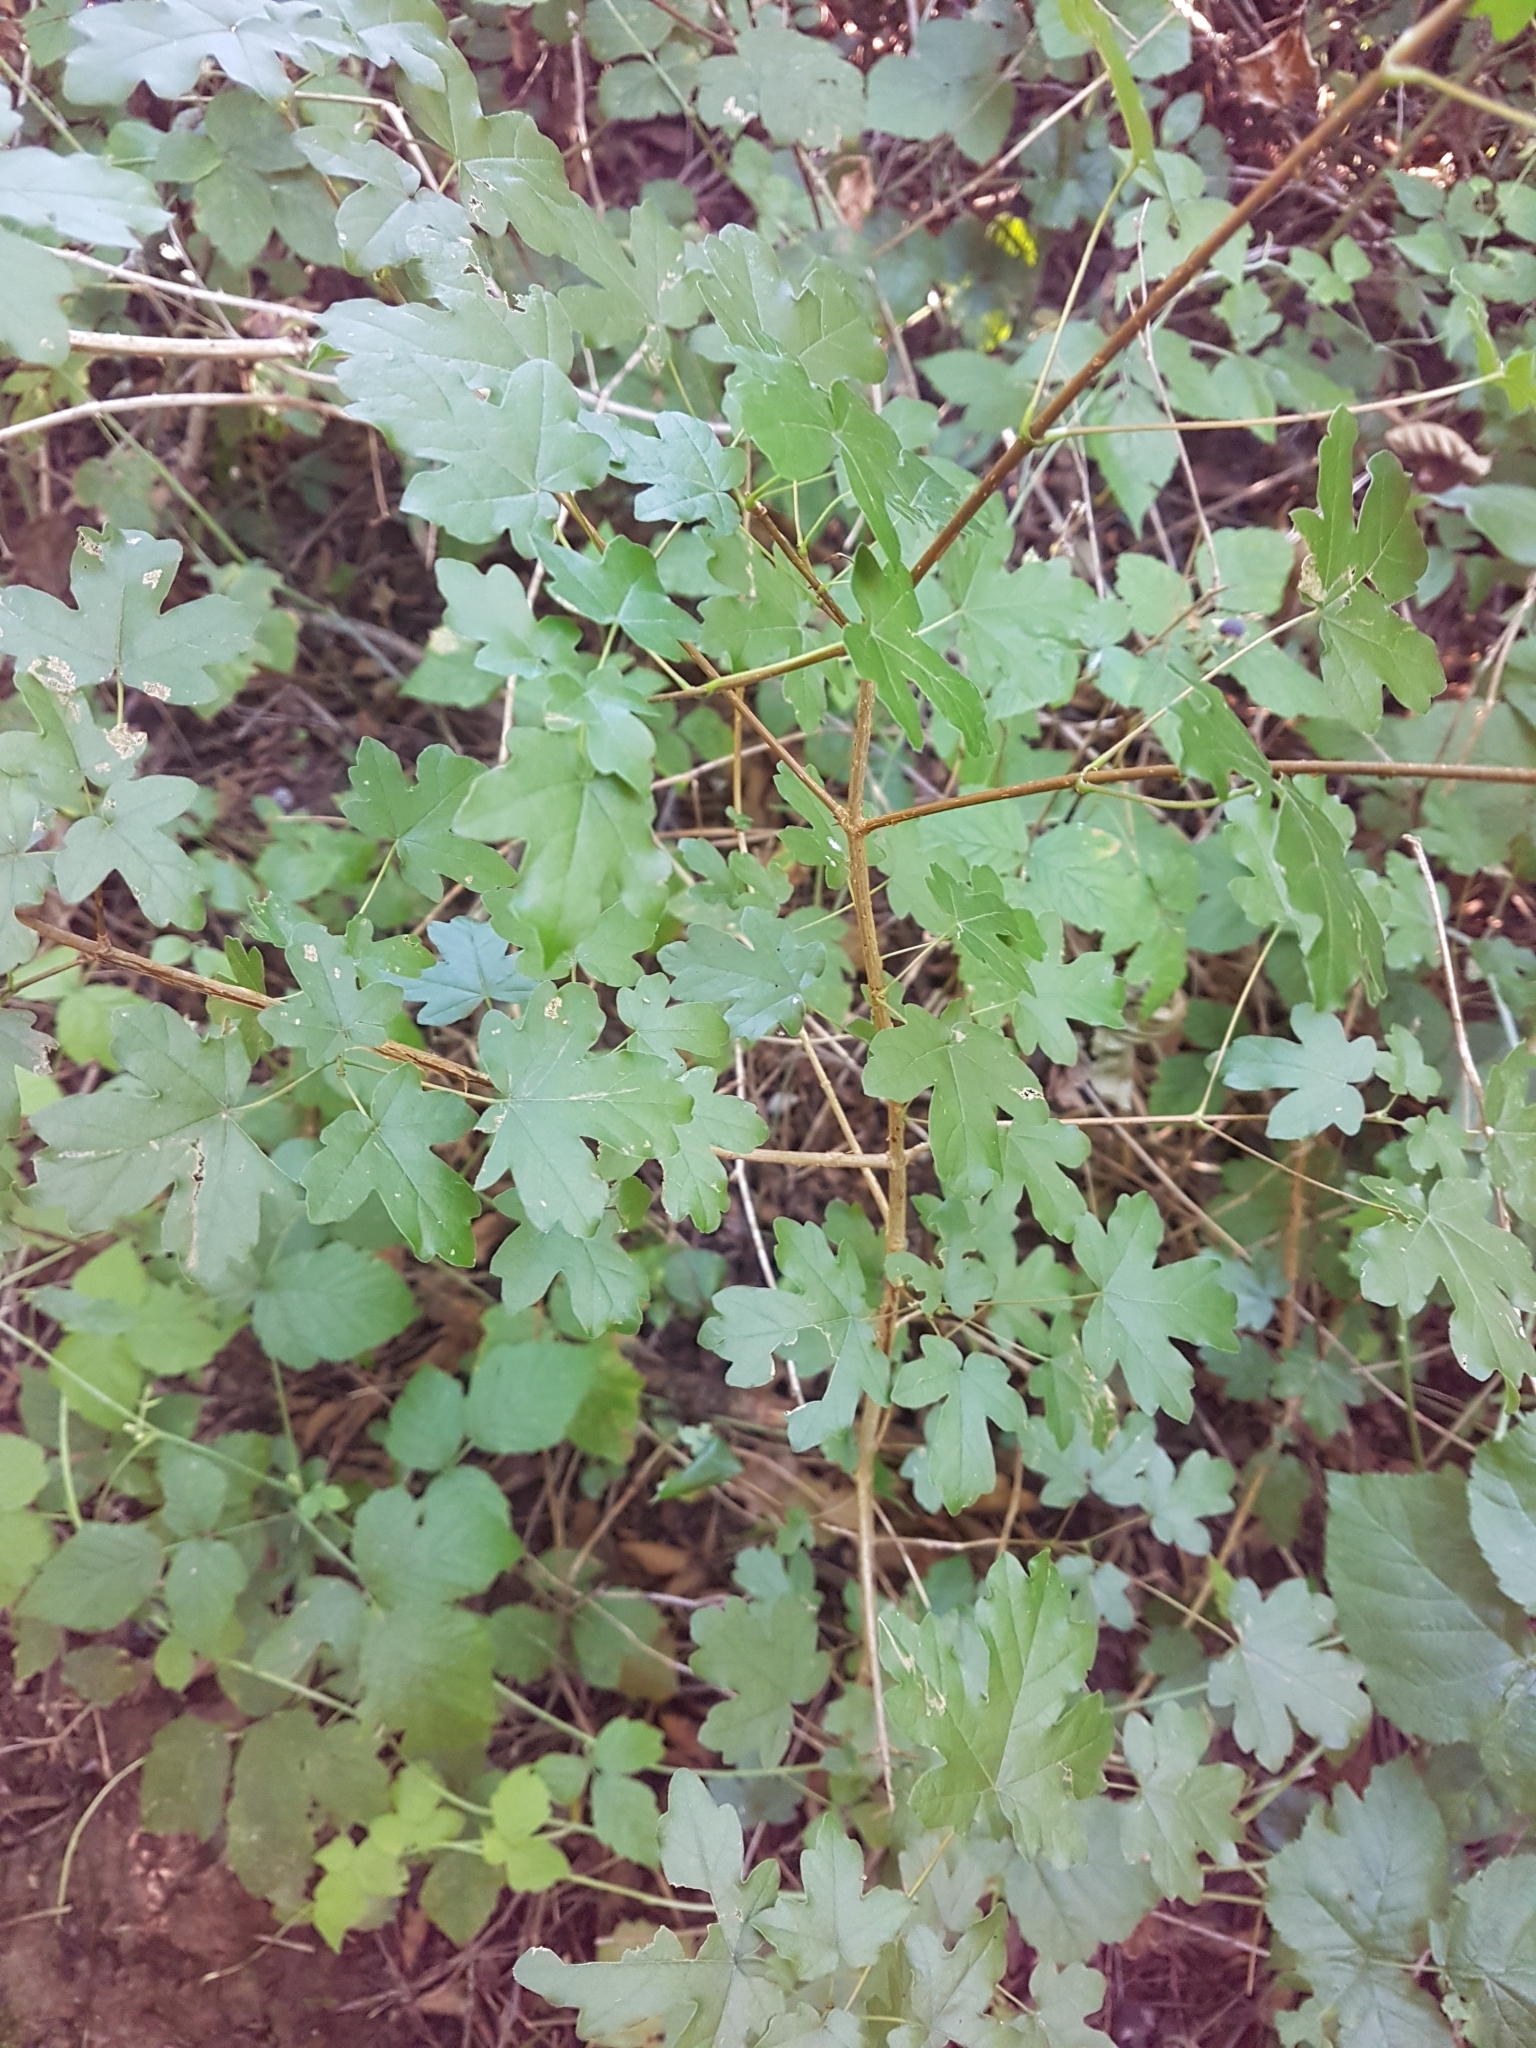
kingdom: Plantae
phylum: Tracheophyta
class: Magnoliopsida
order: Sapindales
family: Sapindaceae
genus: Acer
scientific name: Acer campestre
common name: Field maple
